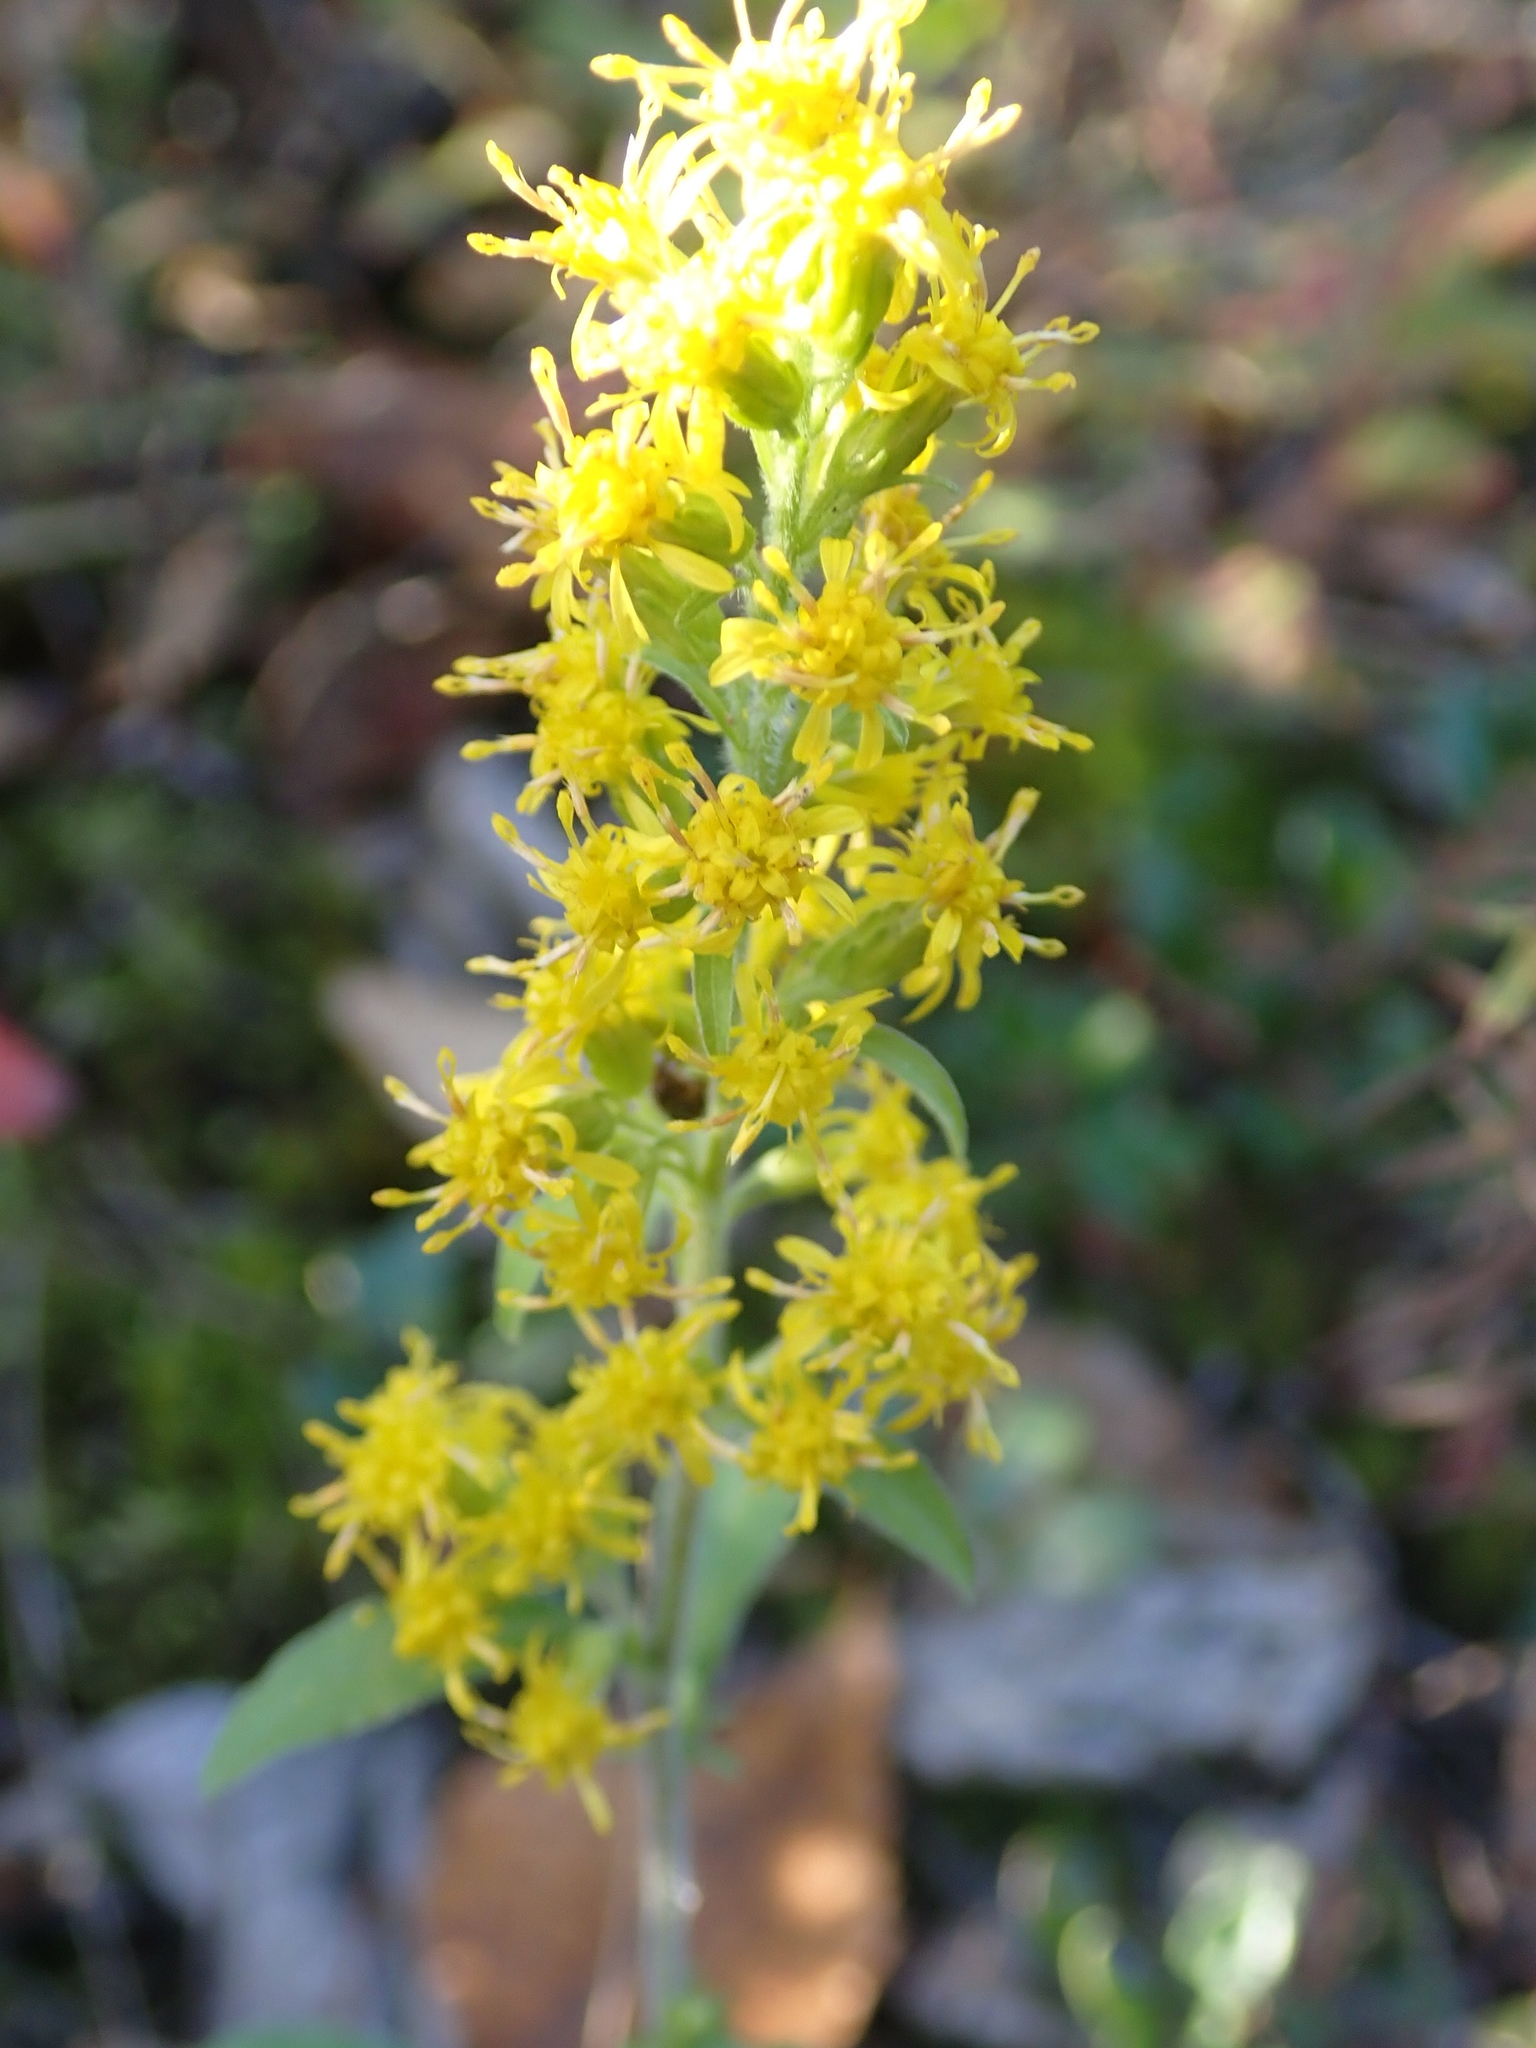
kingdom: Plantae
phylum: Tracheophyta
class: Magnoliopsida
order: Asterales
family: Asteraceae
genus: Solidago
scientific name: Solidago hispida
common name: Hairy goldenrod
